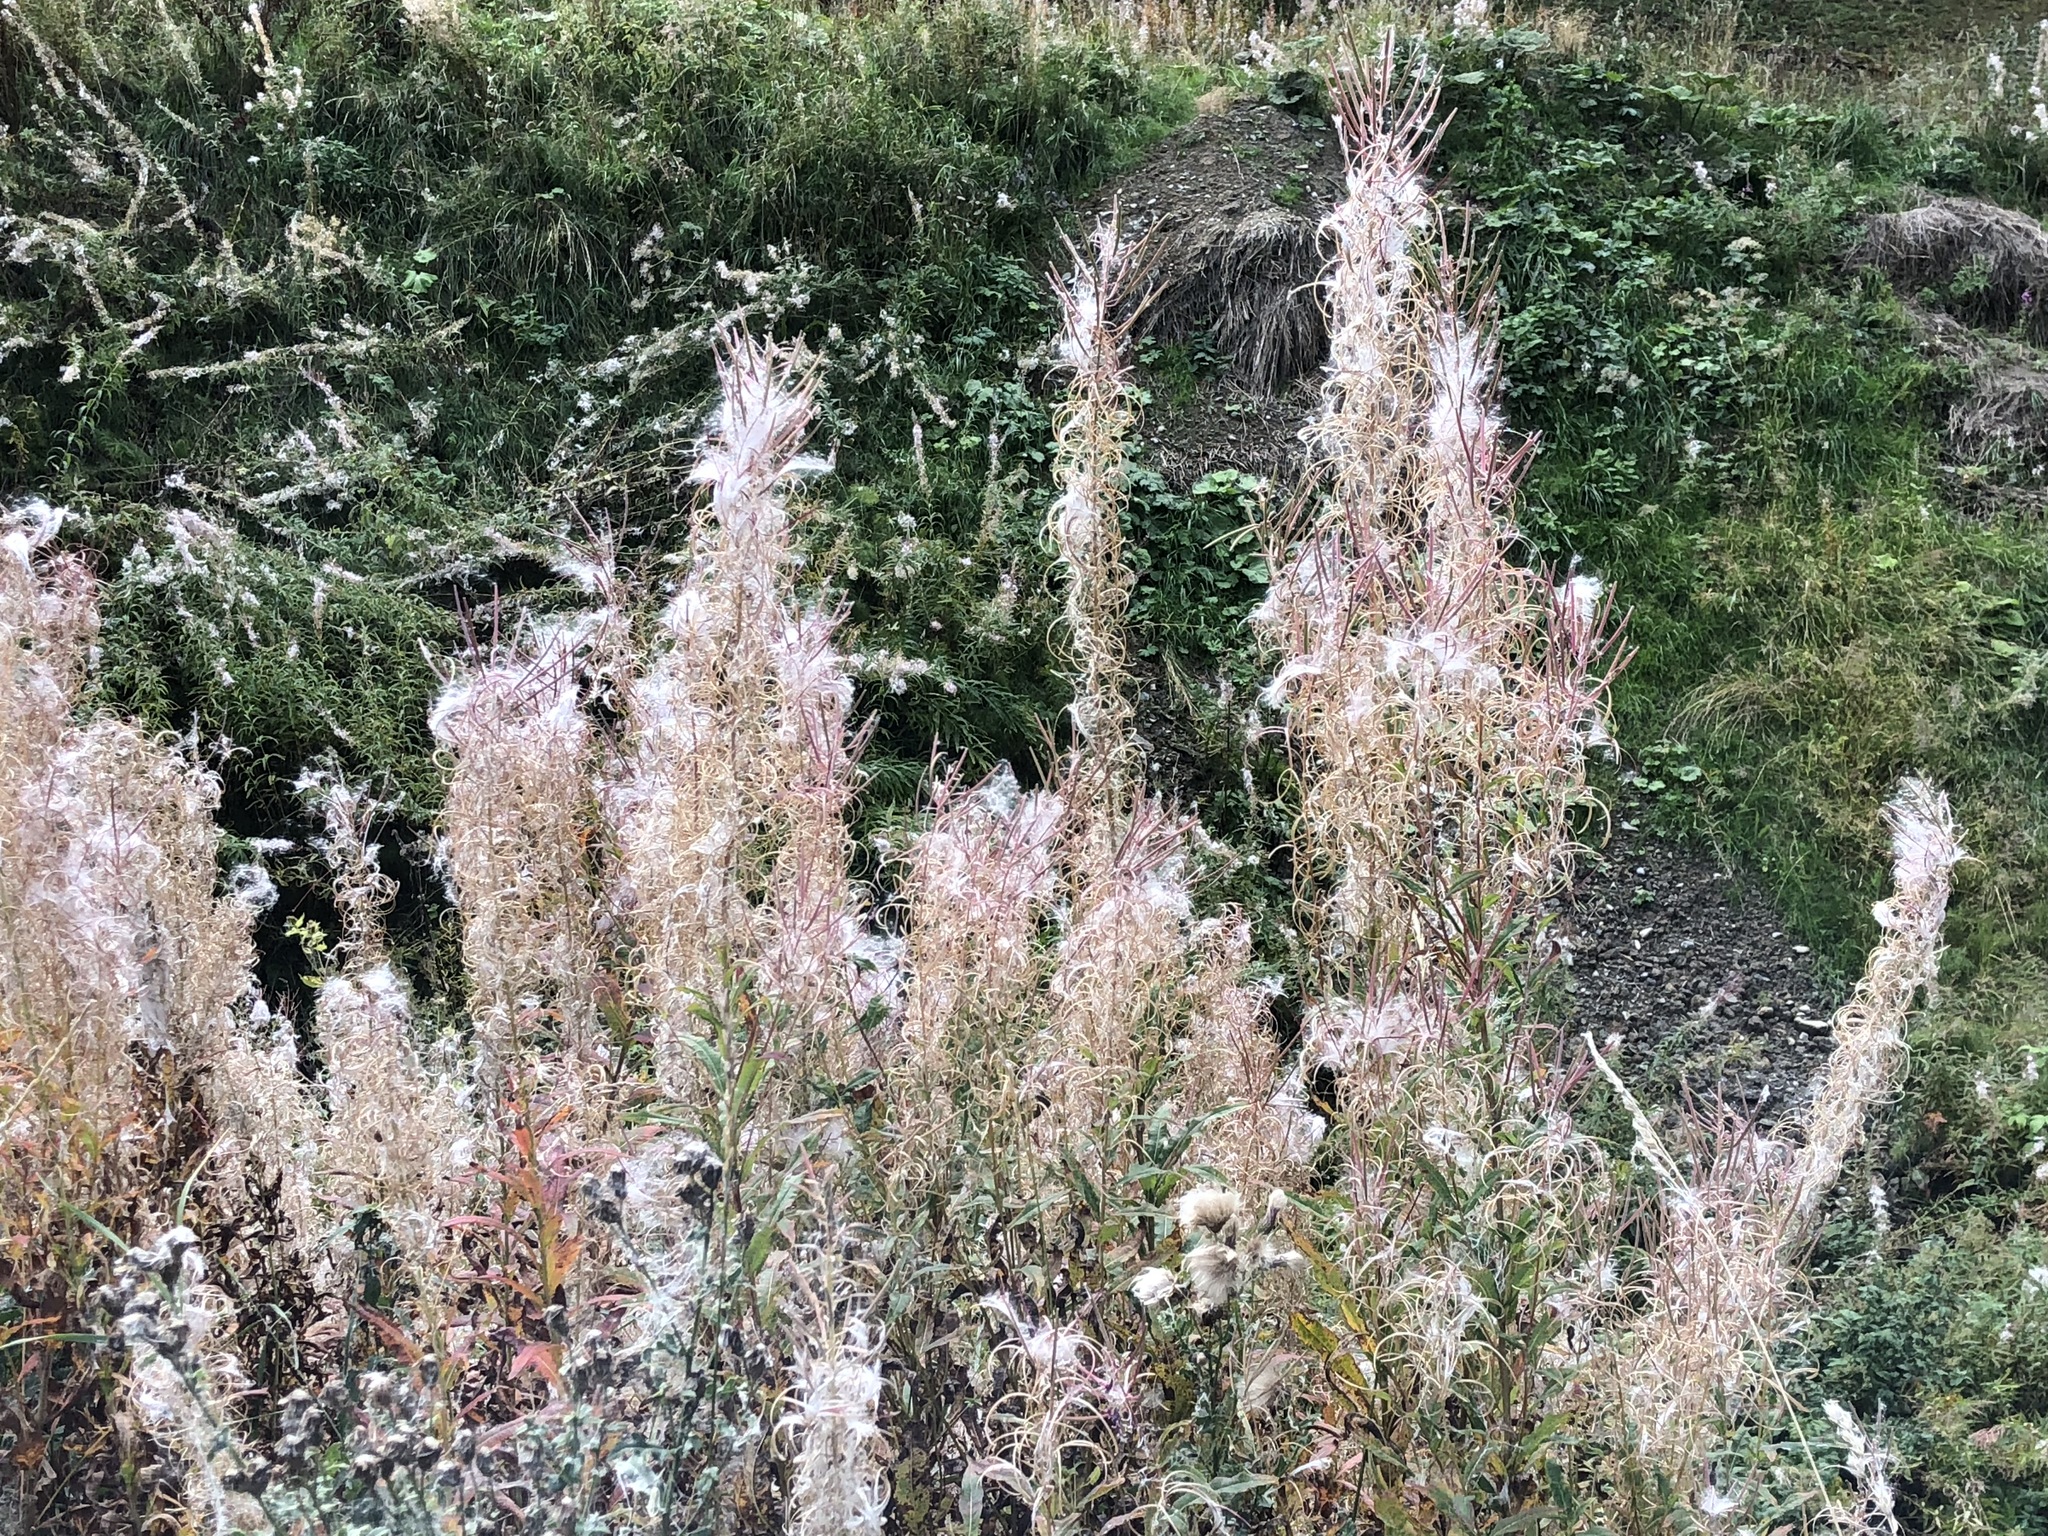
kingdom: Plantae
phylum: Tracheophyta
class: Magnoliopsida
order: Myrtales
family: Onagraceae
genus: Chamaenerion
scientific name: Chamaenerion angustifolium
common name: Fireweed
